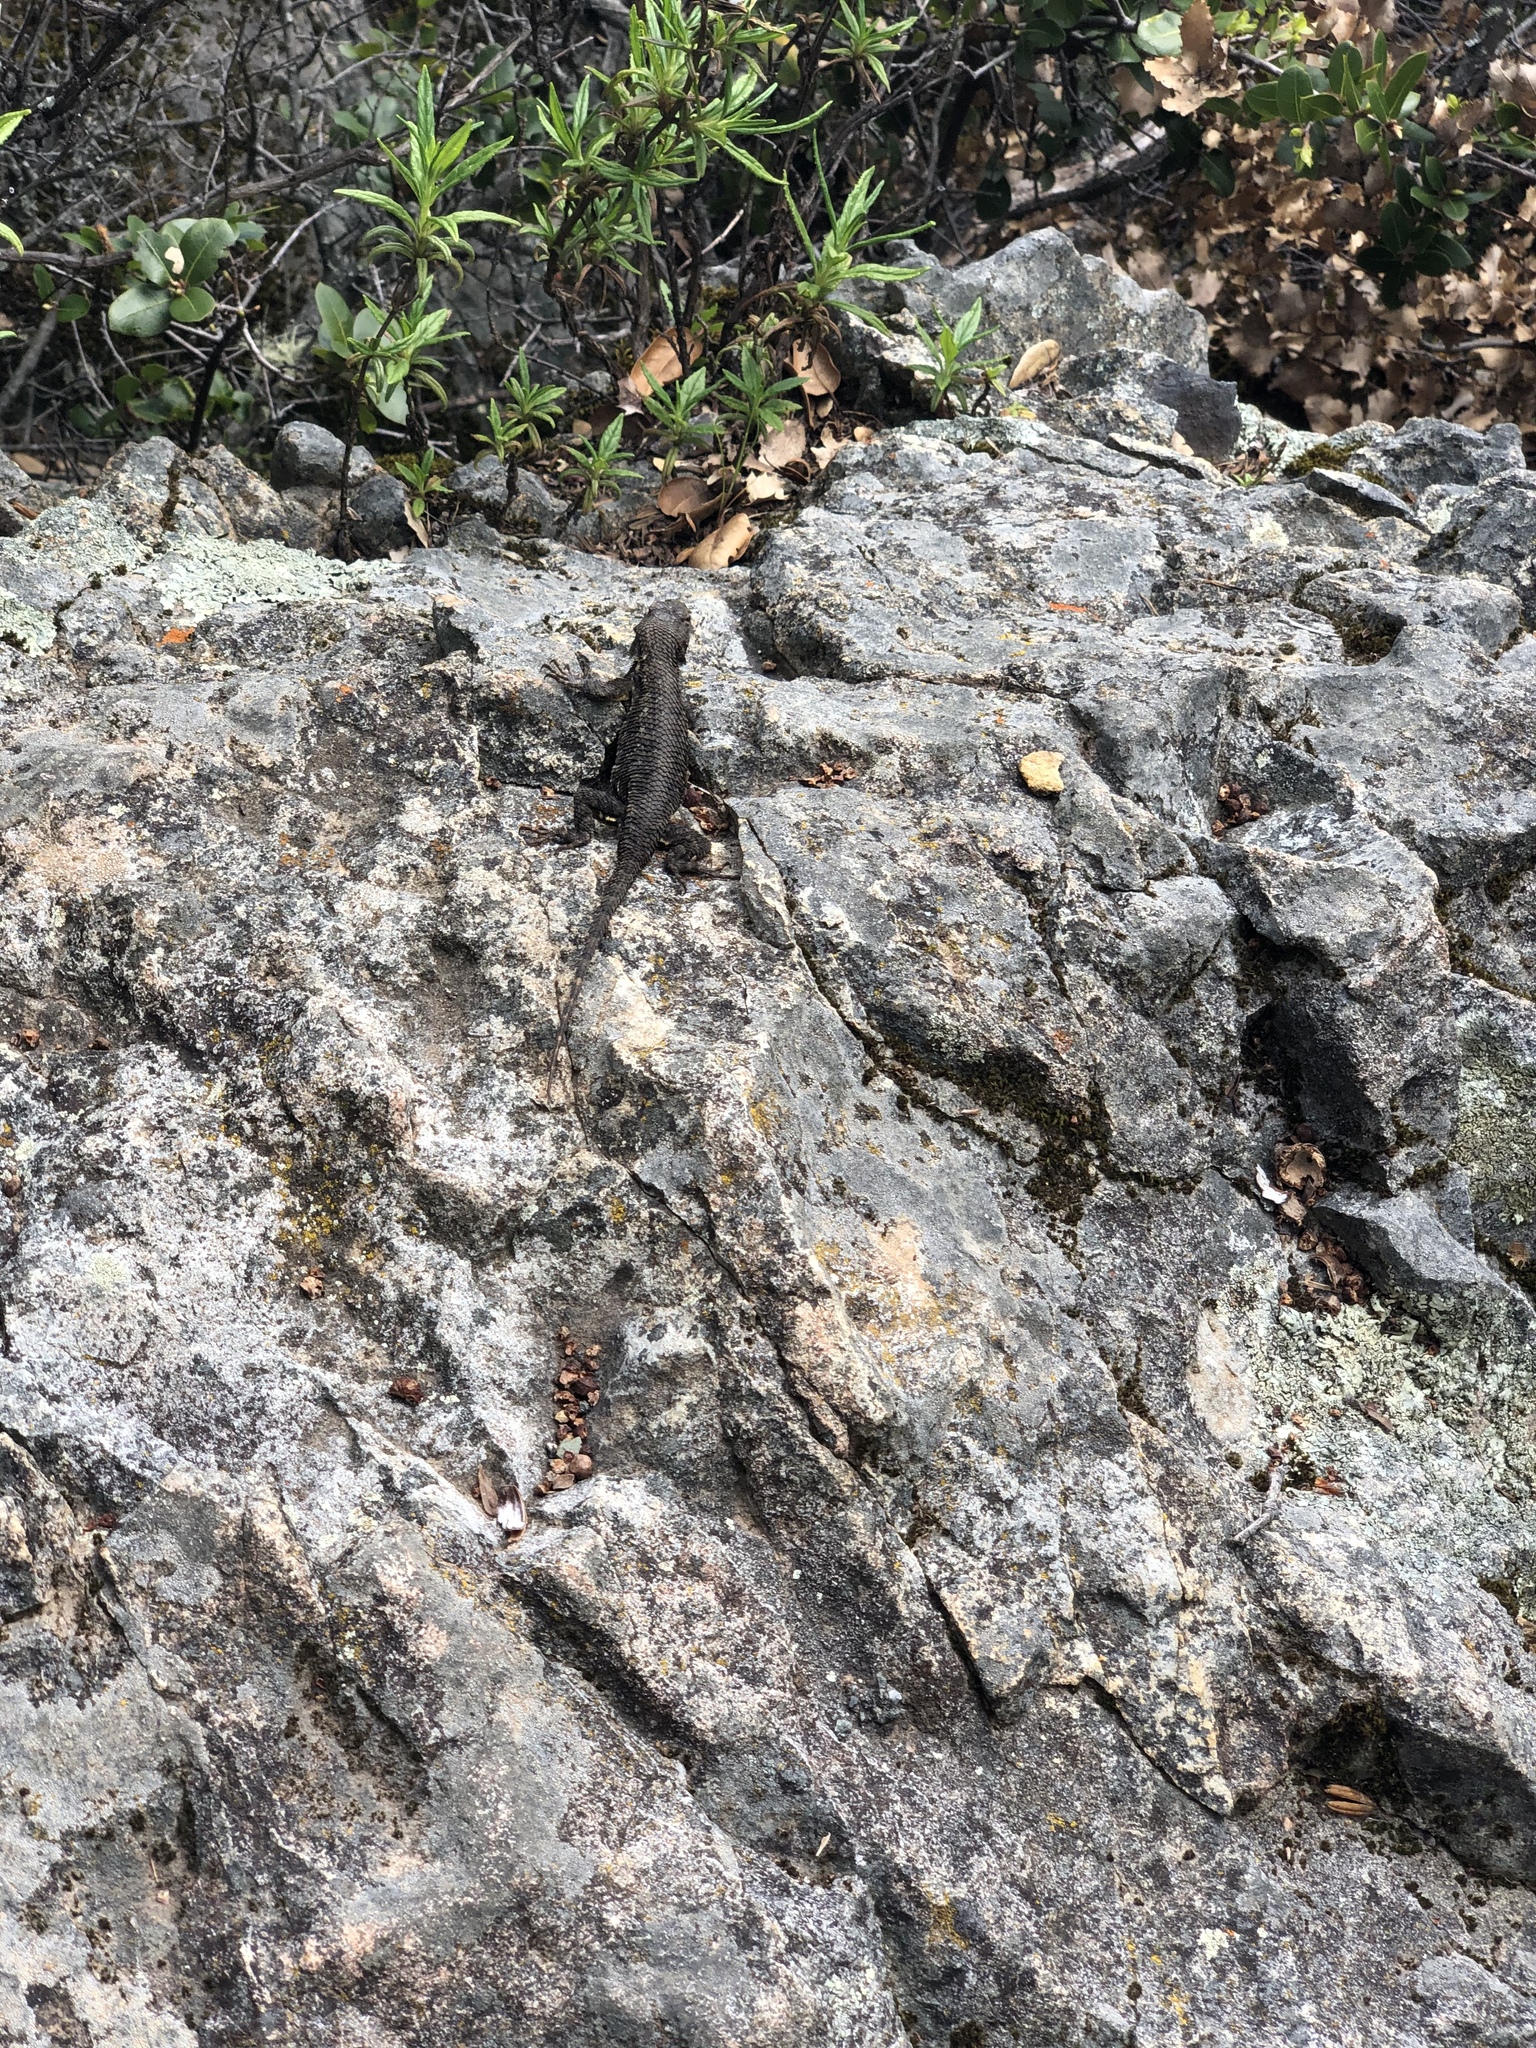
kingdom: Animalia
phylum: Chordata
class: Squamata
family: Phrynosomatidae
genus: Sceloporus
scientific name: Sceloporus occidentalis
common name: Western fence lizard
